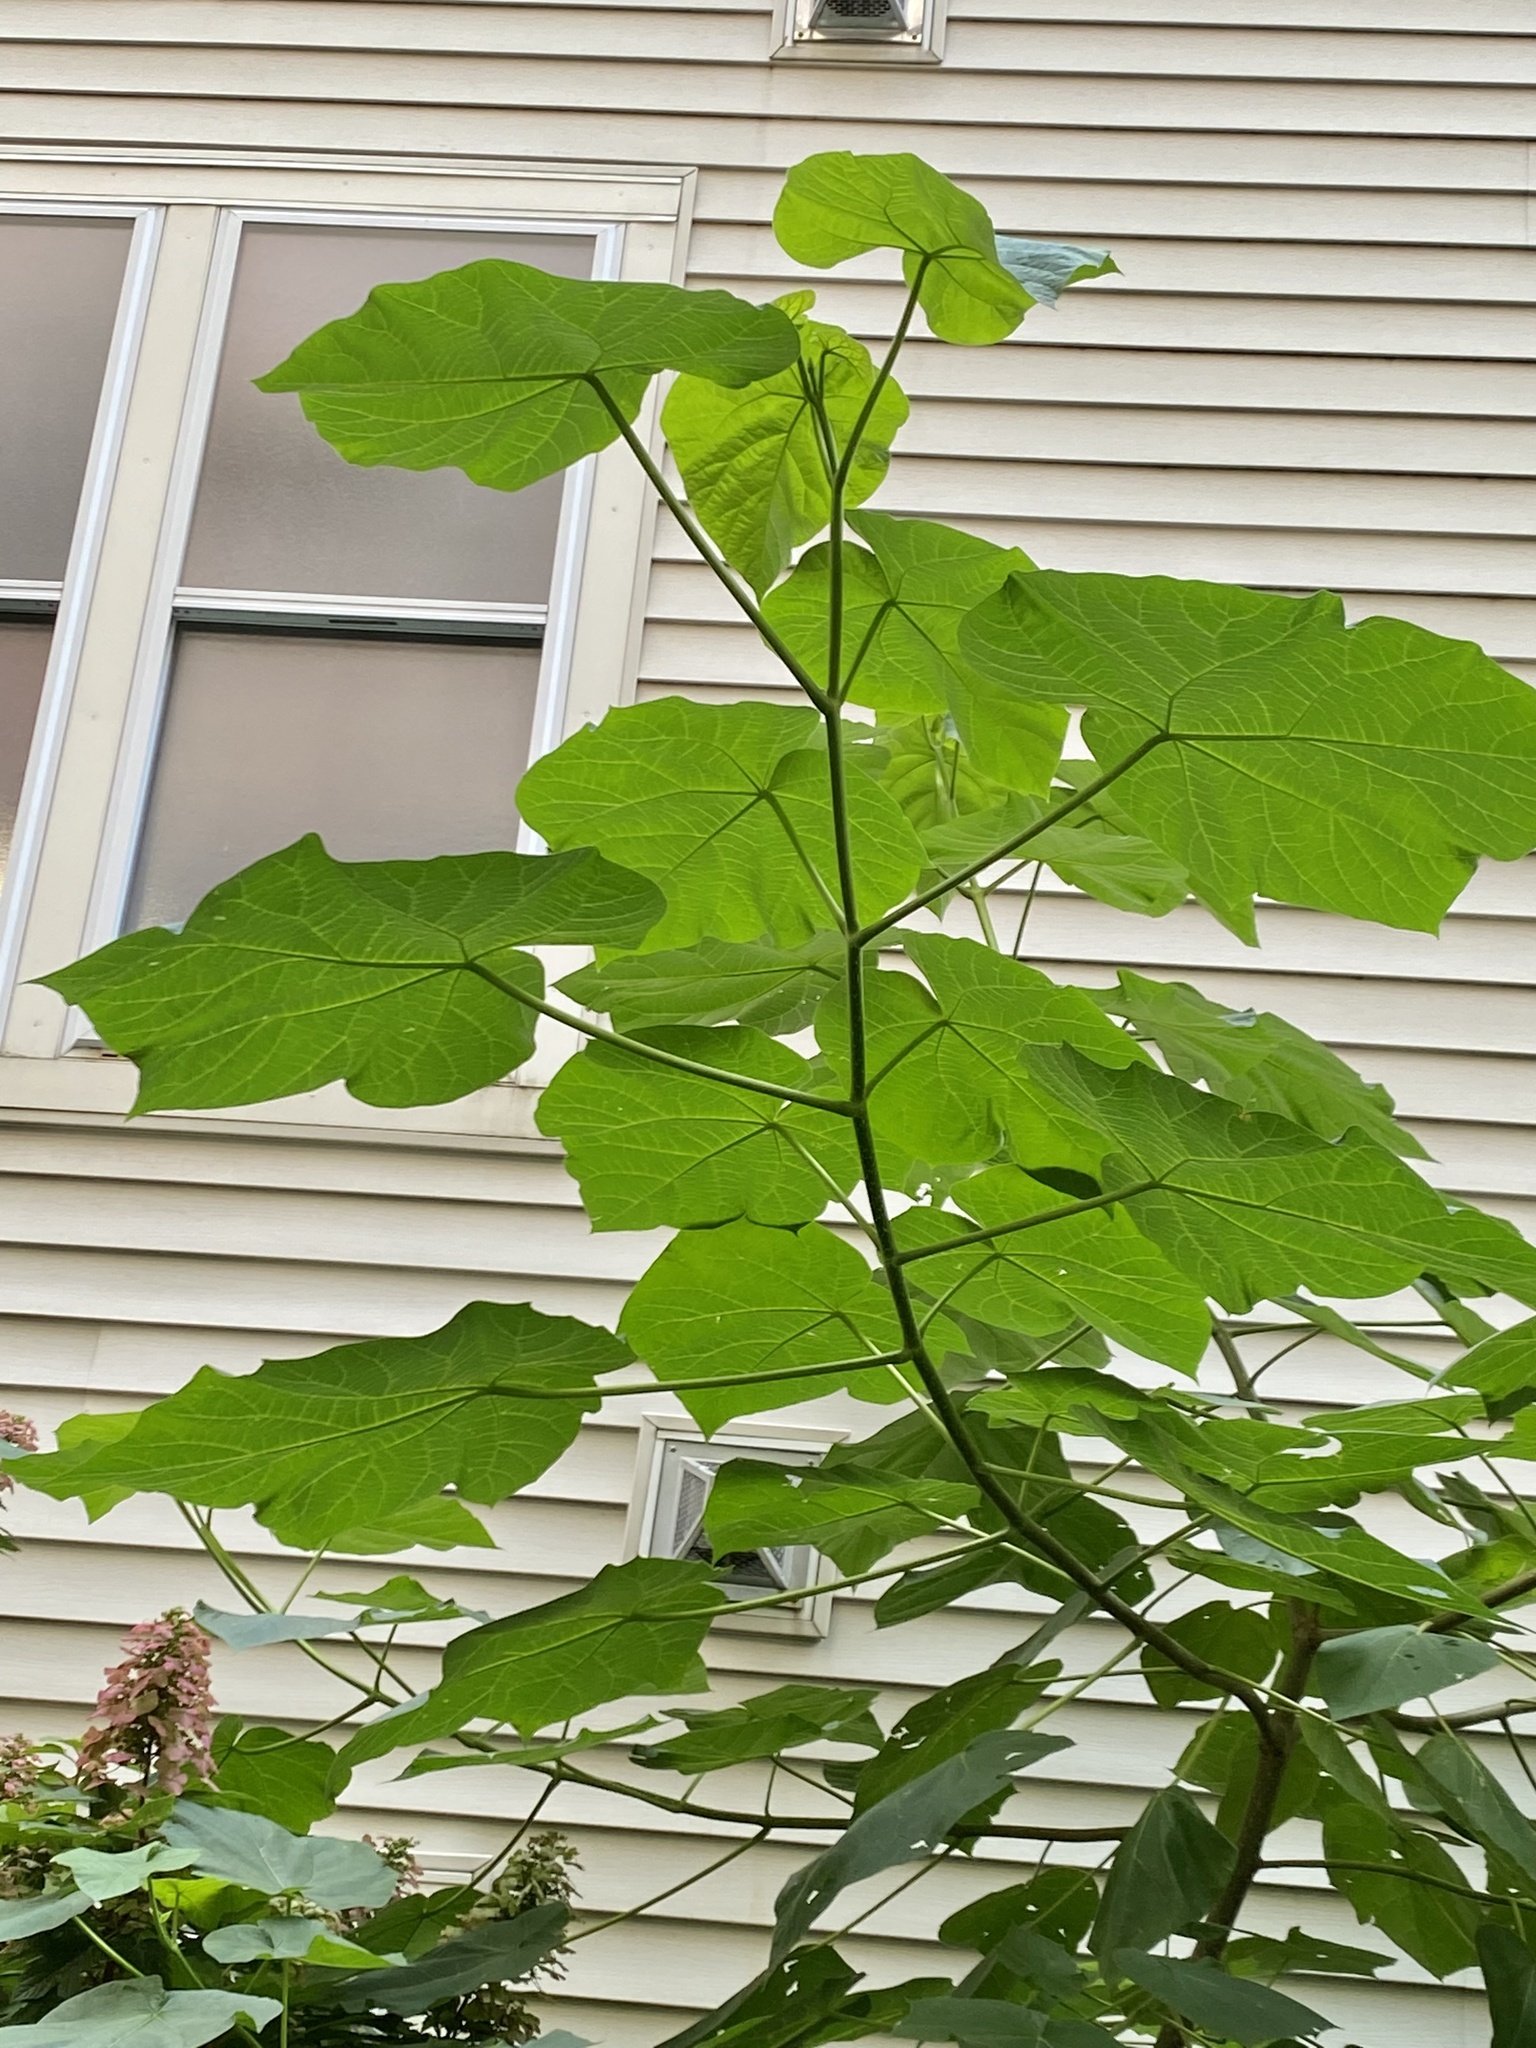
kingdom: Plantae
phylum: Tracheophyta
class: Magnoliopsida
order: Lamiales
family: Paulowniaceae
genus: Paulownia
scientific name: Paulownia tomentosa
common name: Foxglove-tree
